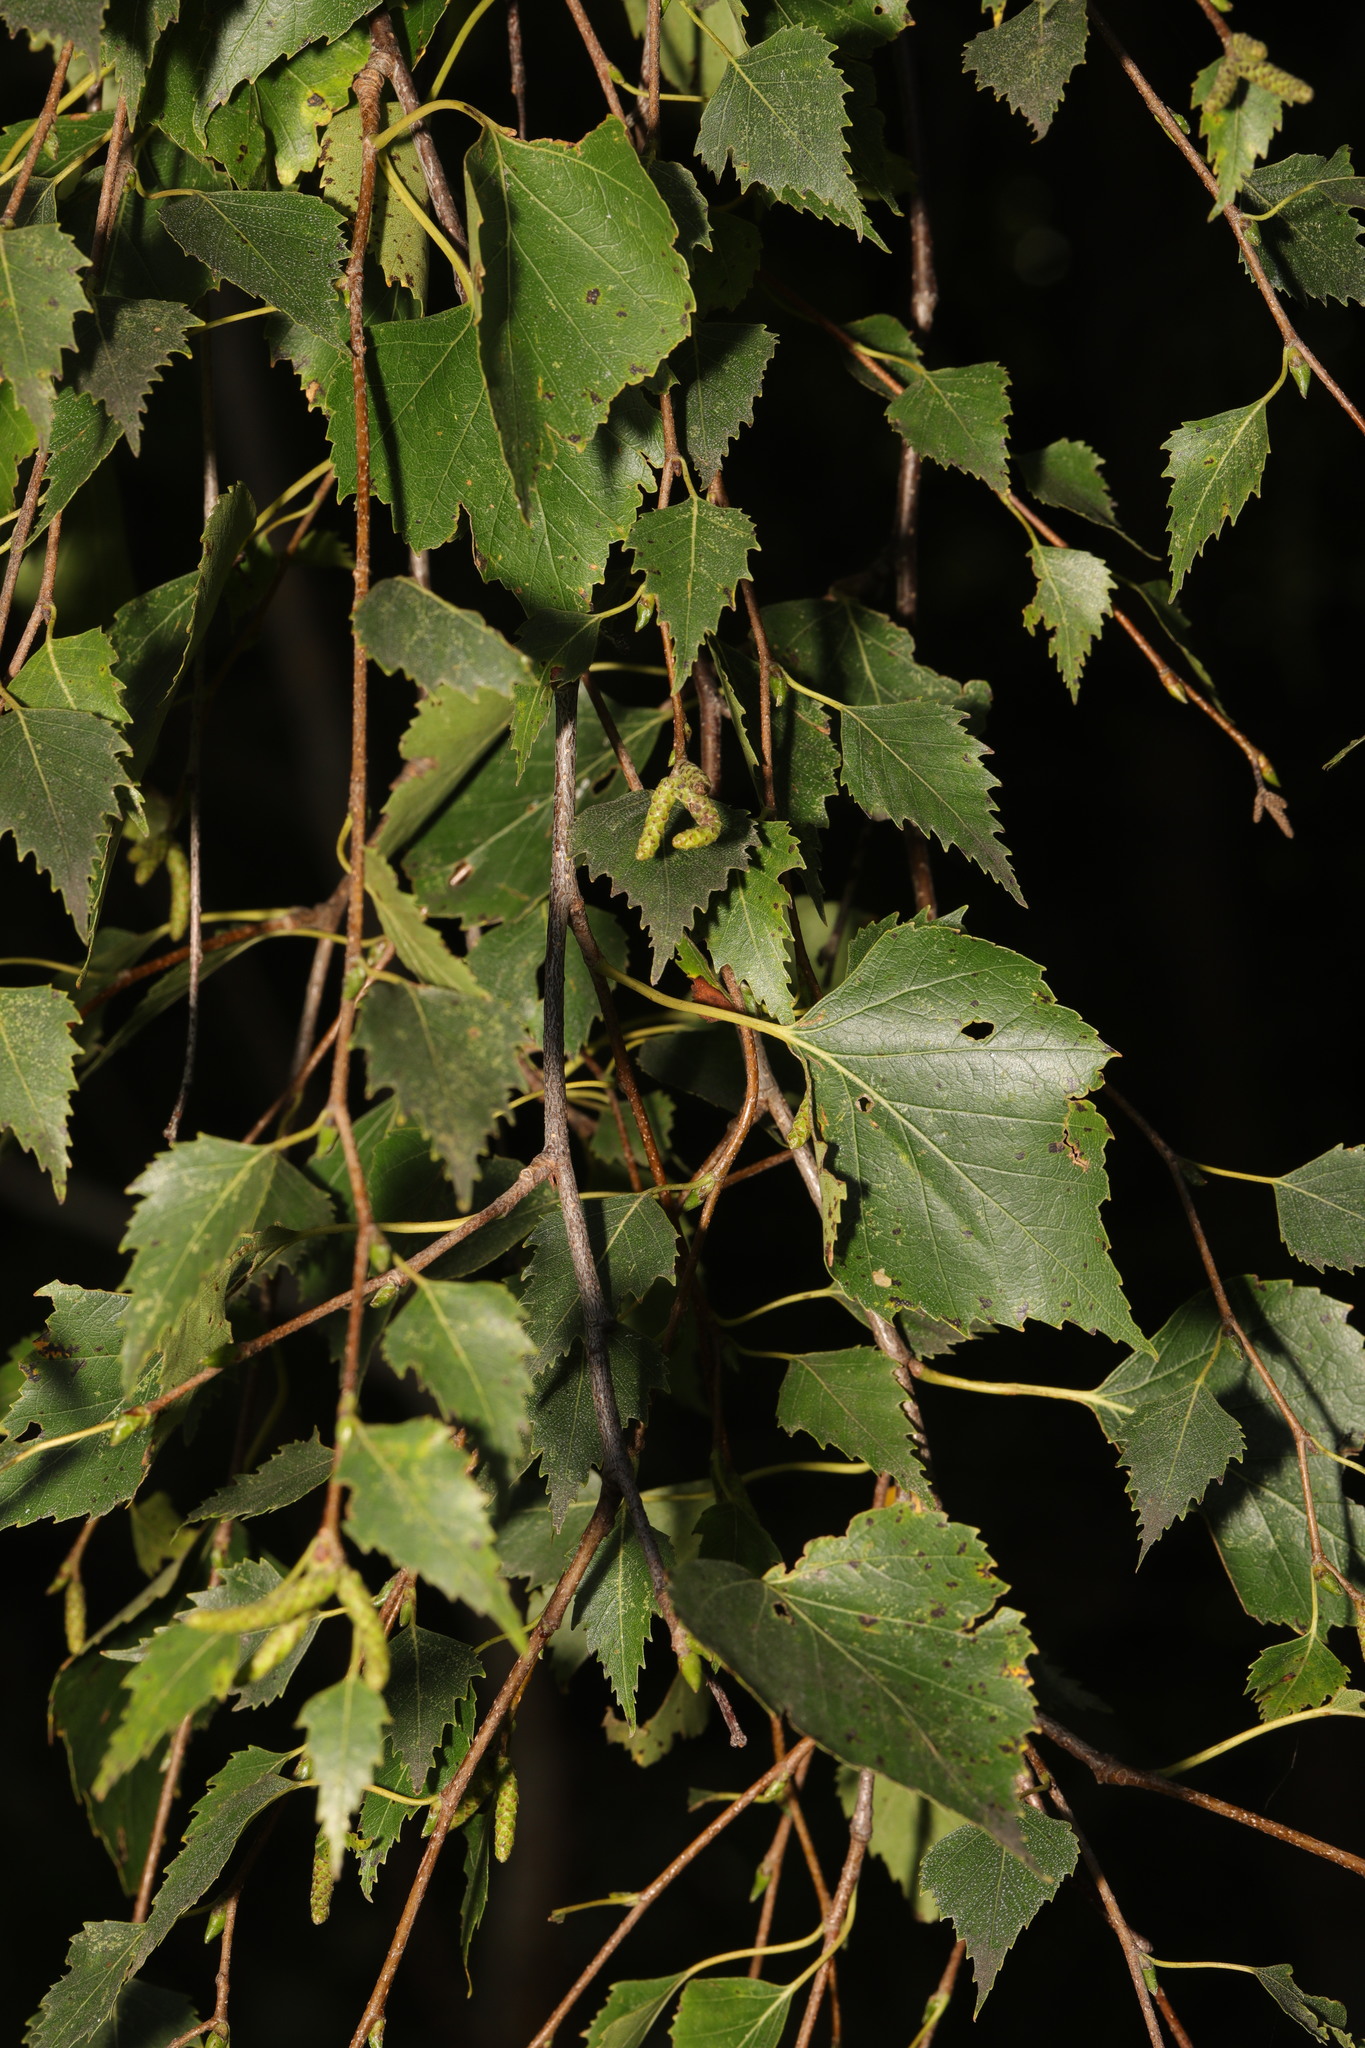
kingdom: Plantae
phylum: Tracheophyta
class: Magnoliopsida
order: Fagales
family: Betulaceae
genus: Betula
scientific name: Betula pendula
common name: Silver birch
